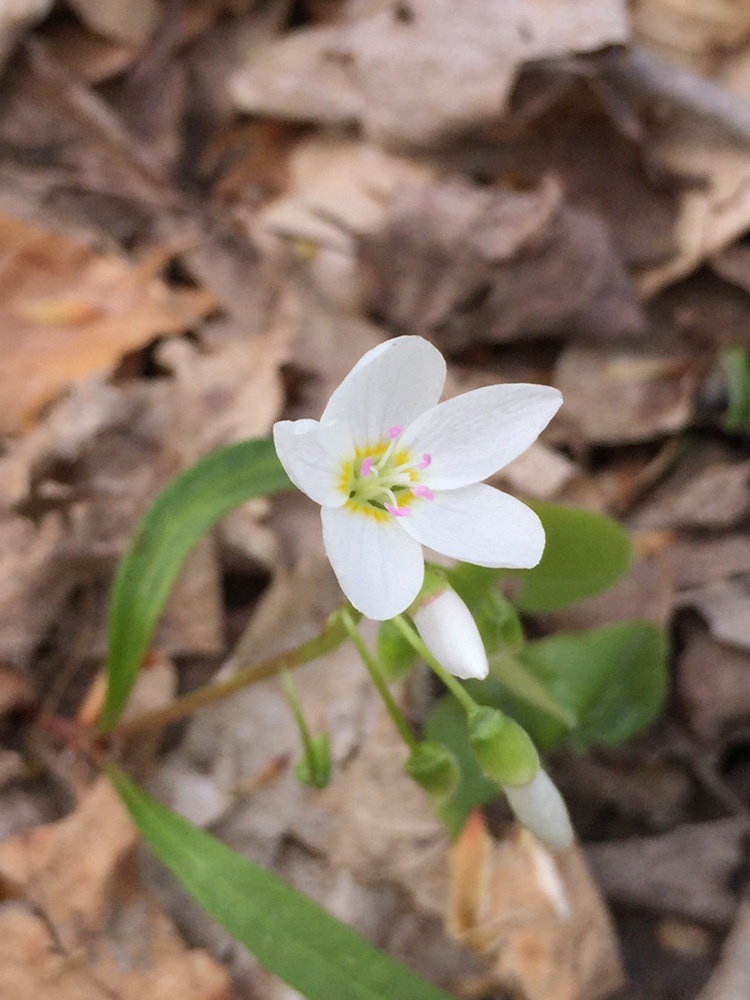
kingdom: Plantae
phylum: Tracheophyta
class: Magnoliopsida
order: Caryophyllales
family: Montiaceae
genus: Claytonia
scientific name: Claytonia virginica
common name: Virginia springbeauty
